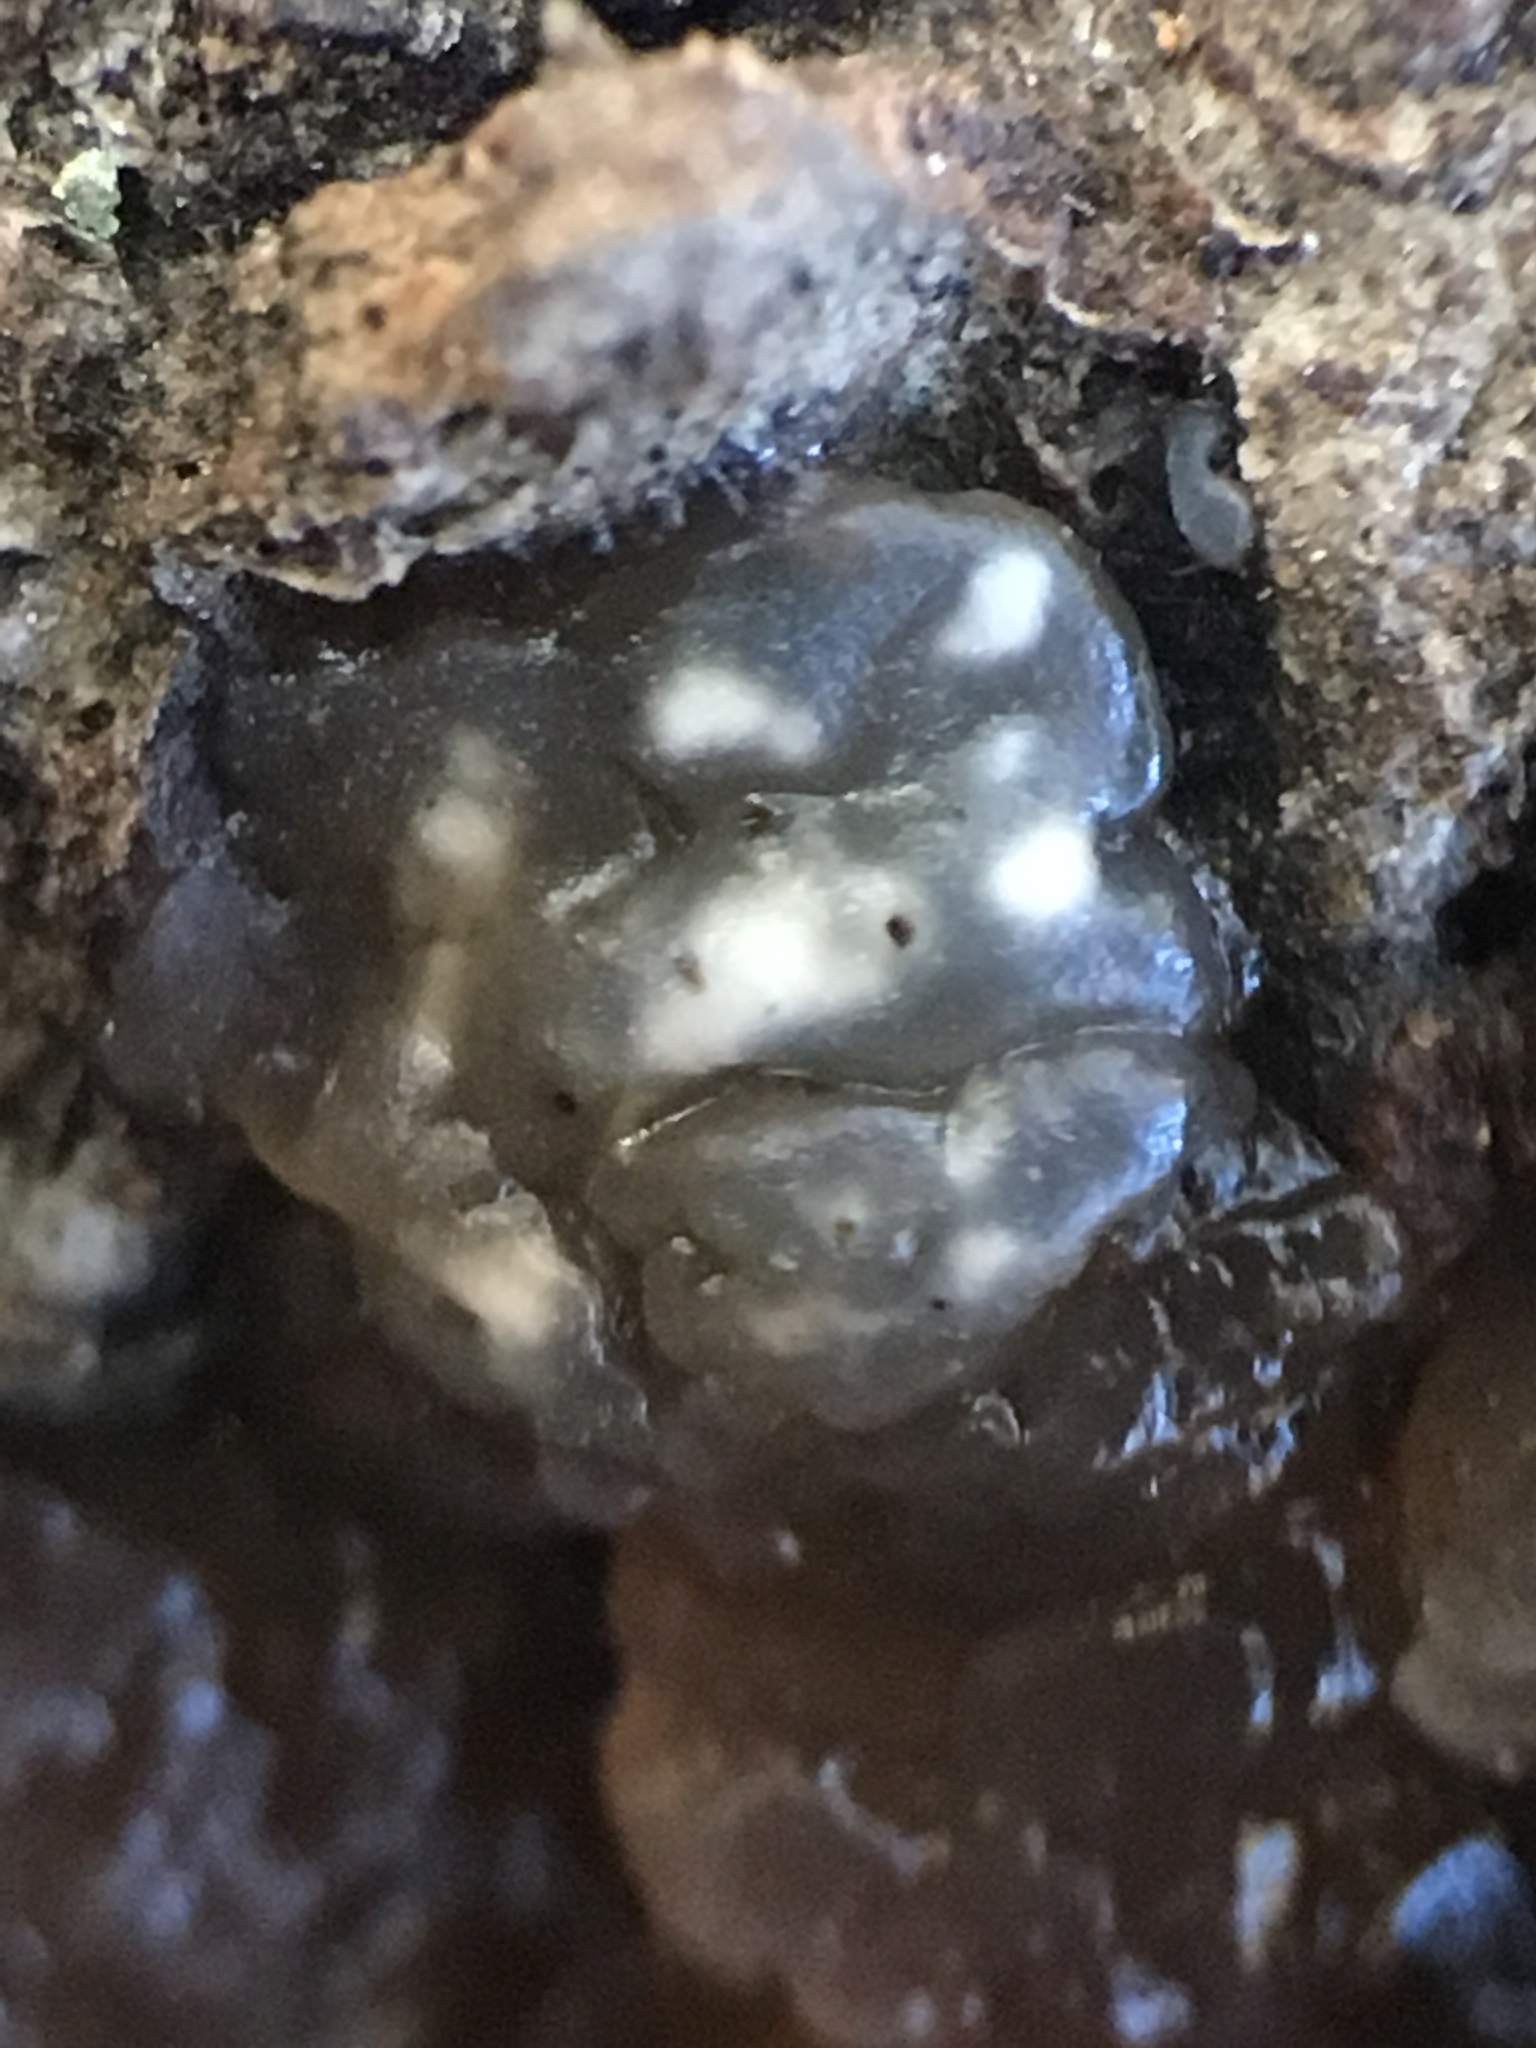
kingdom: Fungi
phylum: Basidiomycota
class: Agaricomycetes
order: Auriculariales
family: Hyaloriaceae
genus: Myxarium
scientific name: Myxarium nucleatum
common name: Crystal brain fungus
